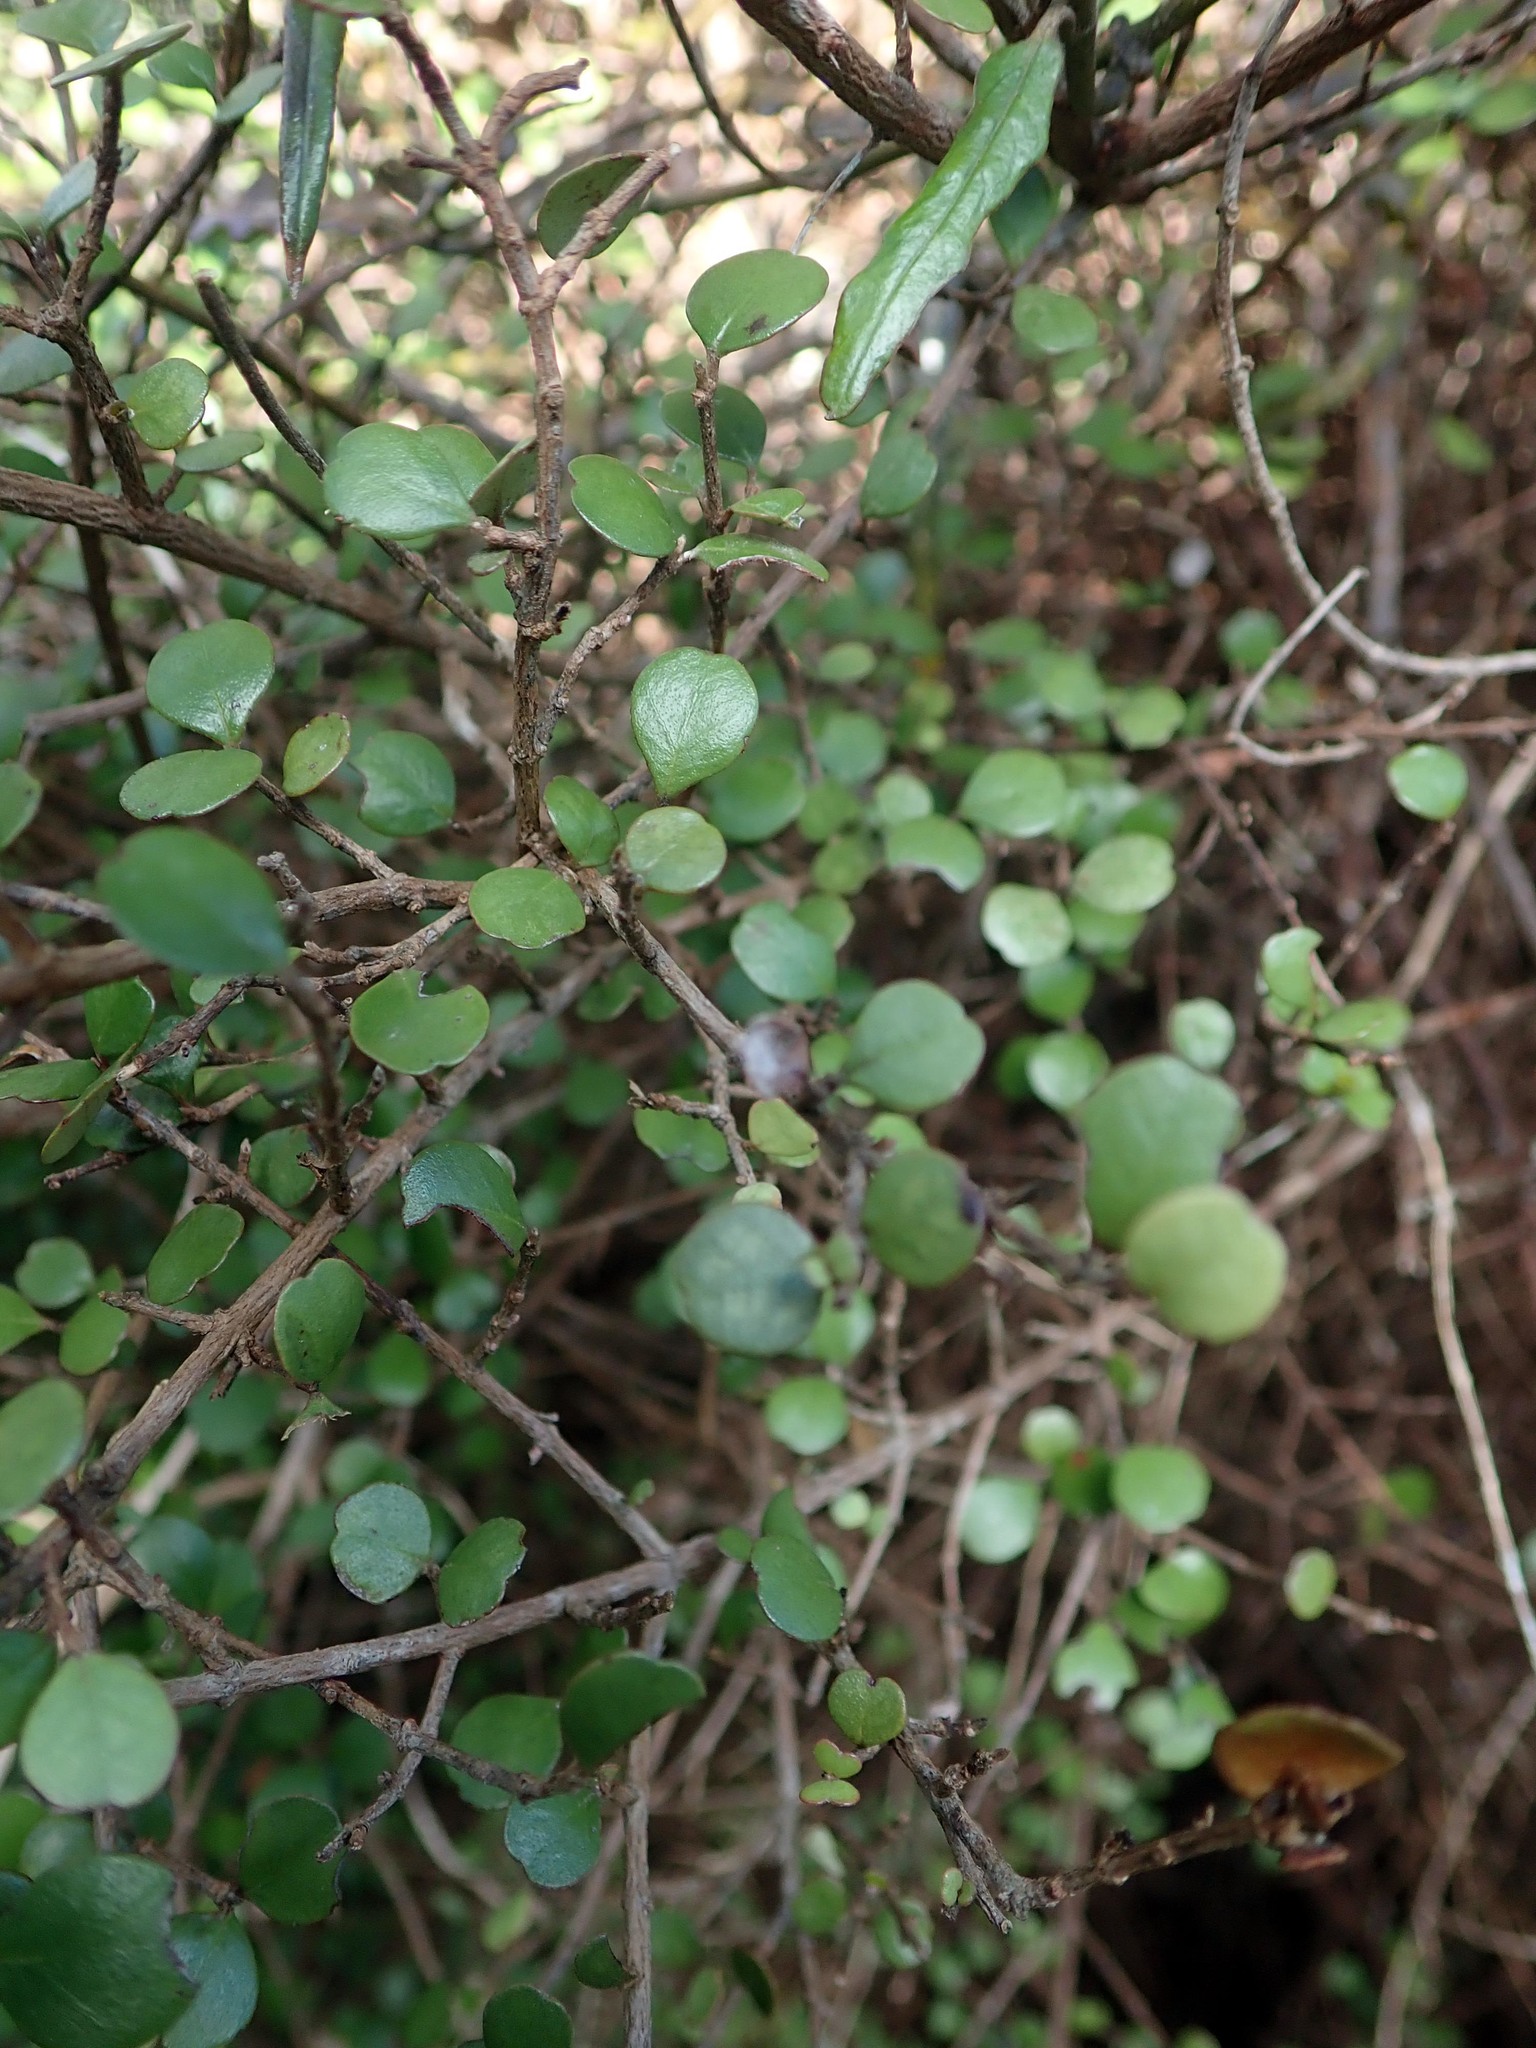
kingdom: Plantae
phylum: Tracheophyta
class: Magnoliopsida
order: Myrtales
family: Myrtaceae
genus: Lophomyrtus
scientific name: Lophomyrtus obcordata
